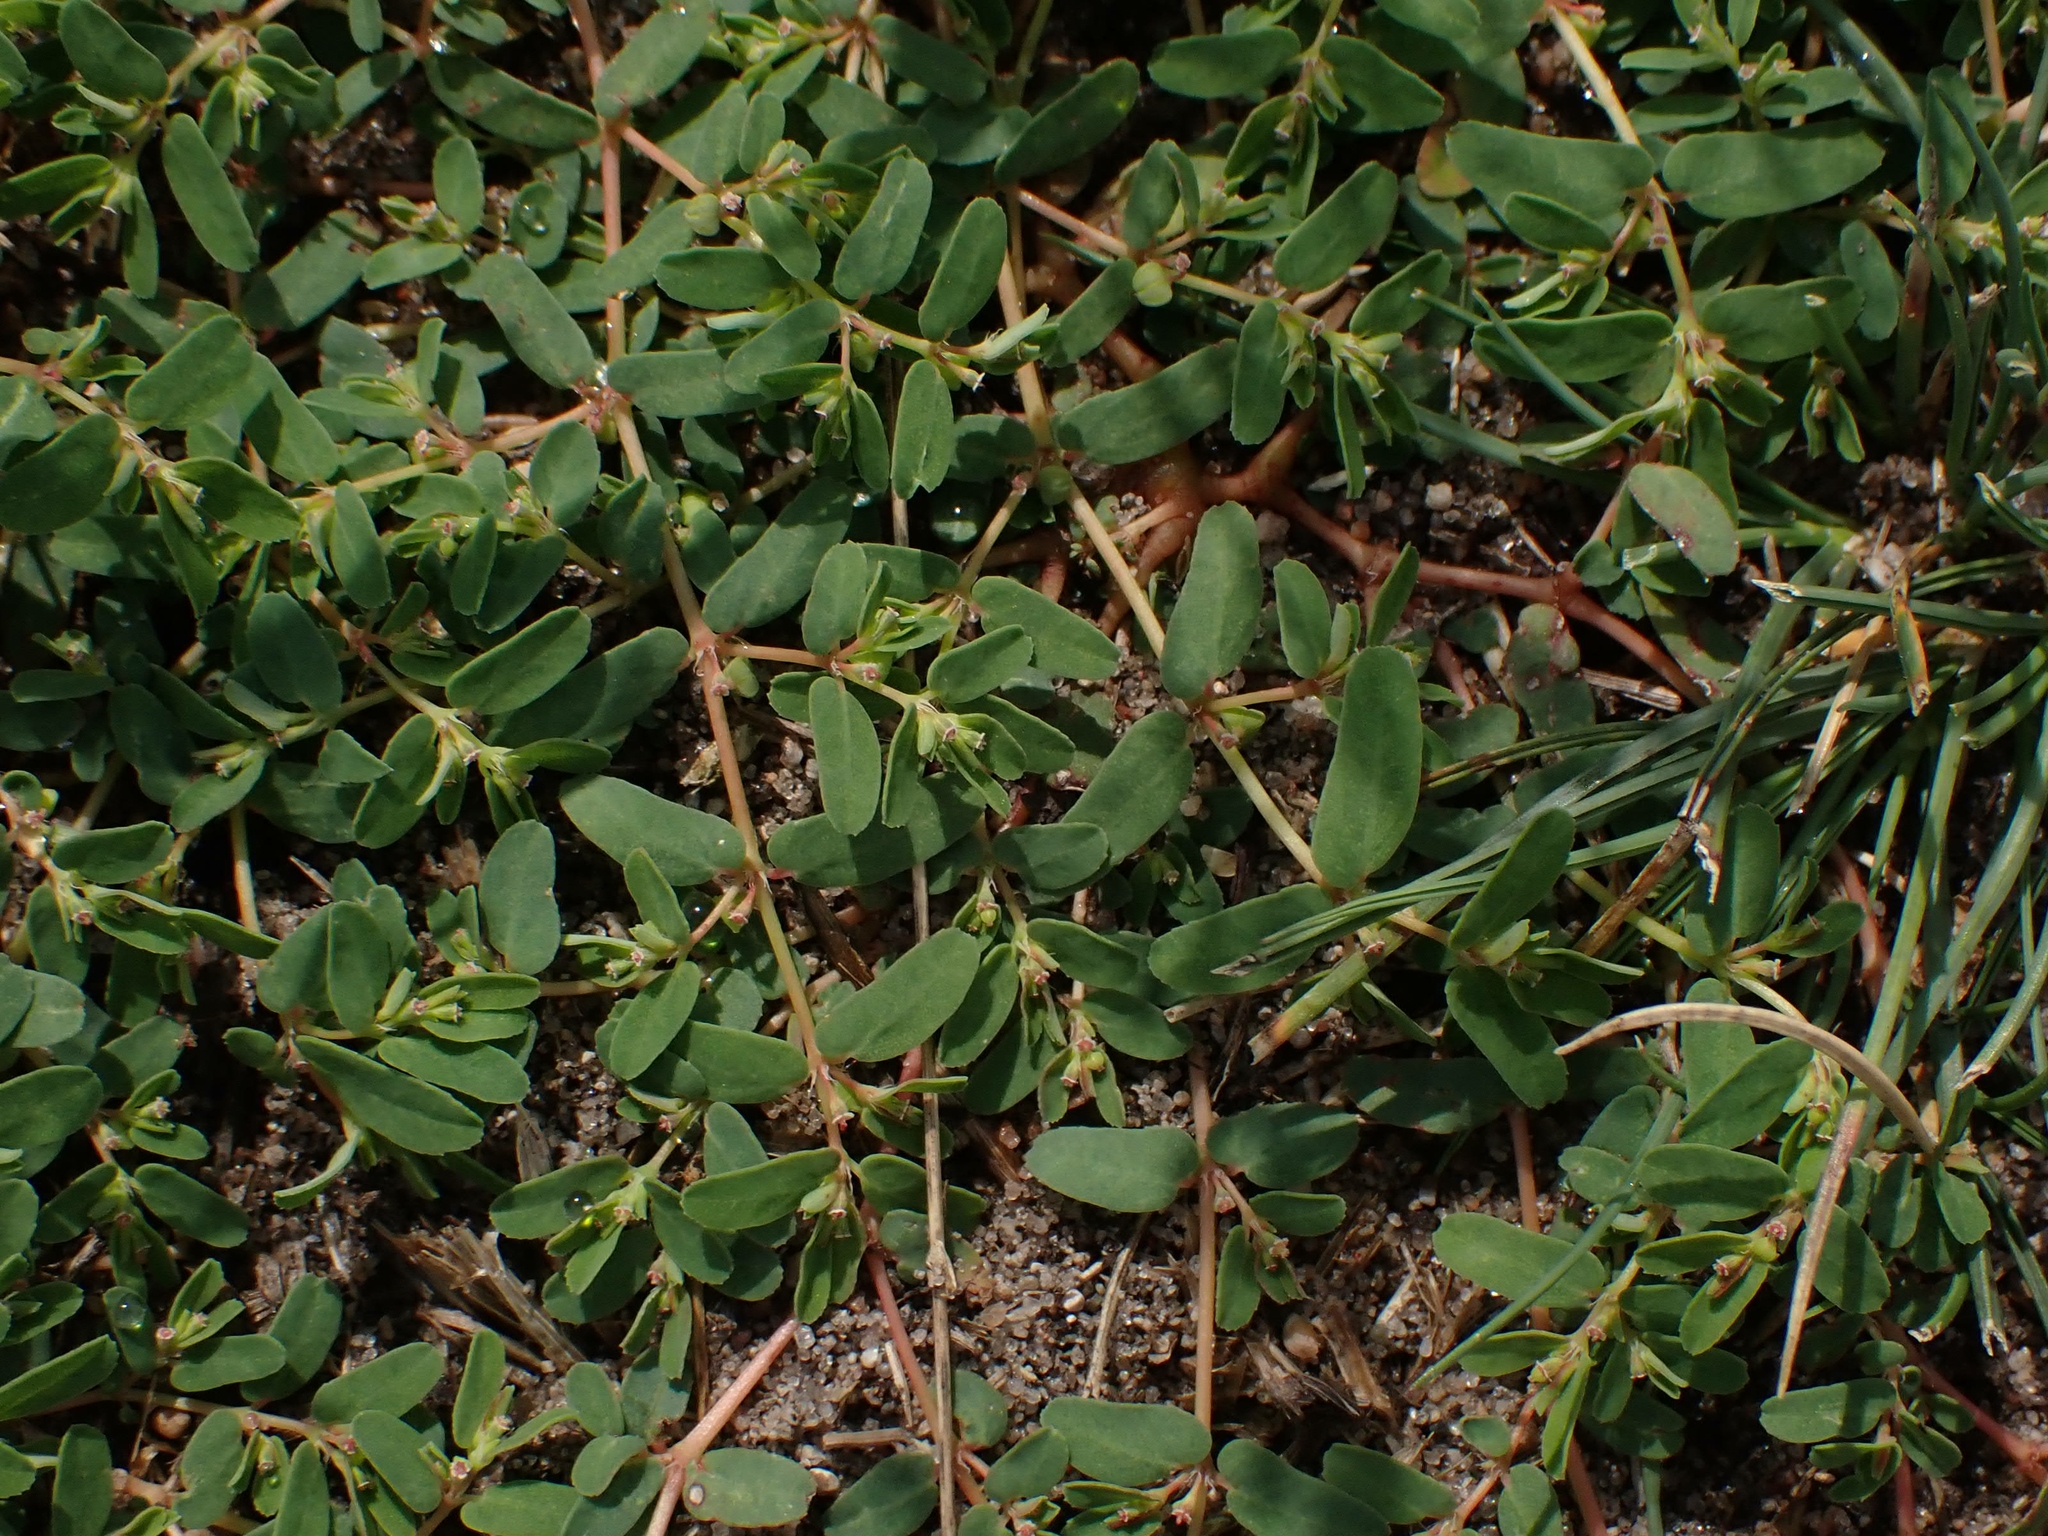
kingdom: Plantae
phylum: Tracheophyta
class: Magnoliopsida
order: Malpighiales
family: Euphorbiaceae
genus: Euphorbia
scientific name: Euphorbia glyptosperma
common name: Corrugate-seeded spurge
